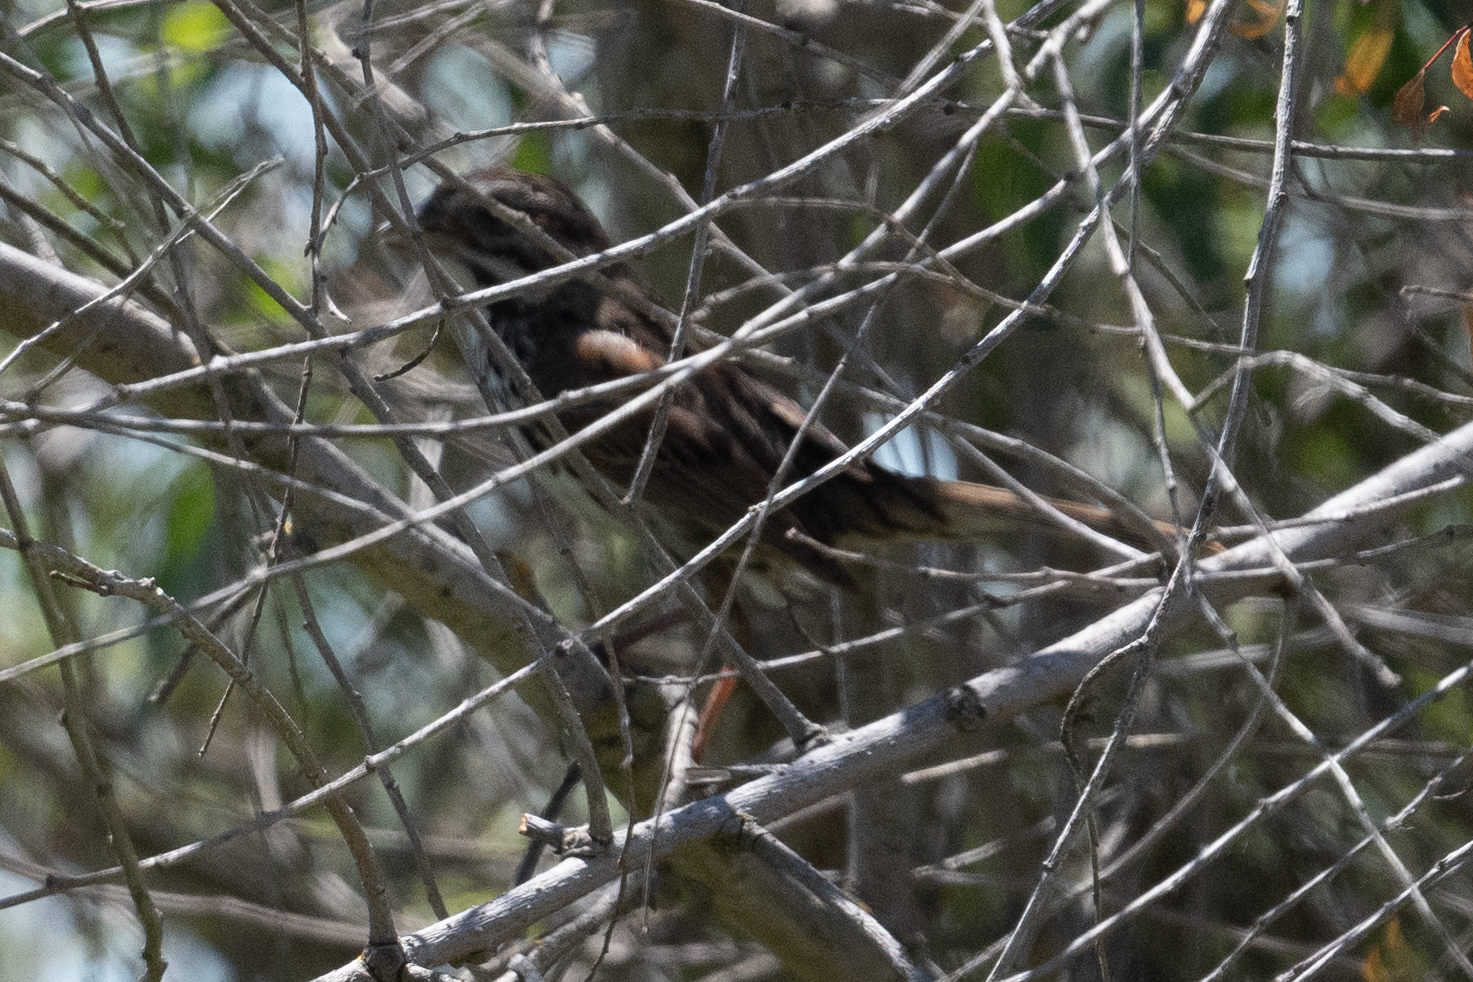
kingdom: Animalia
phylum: Chordata
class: Aves
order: Passeriformes
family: Passerellidae
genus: Melospiza
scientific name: Melospiza melodia
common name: Song sparrow
